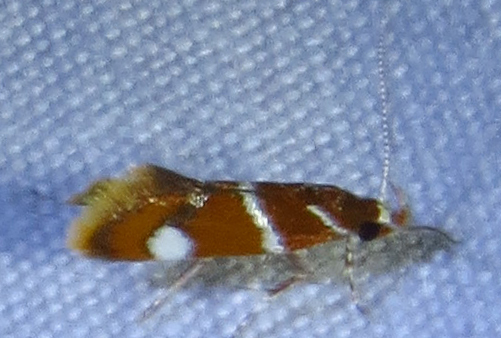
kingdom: Animalia
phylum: Arthropoda
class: Insecta
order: Lepidoptera
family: Oecophoridae
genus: Promalactis
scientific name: Promalactis suzukiella
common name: Moth
